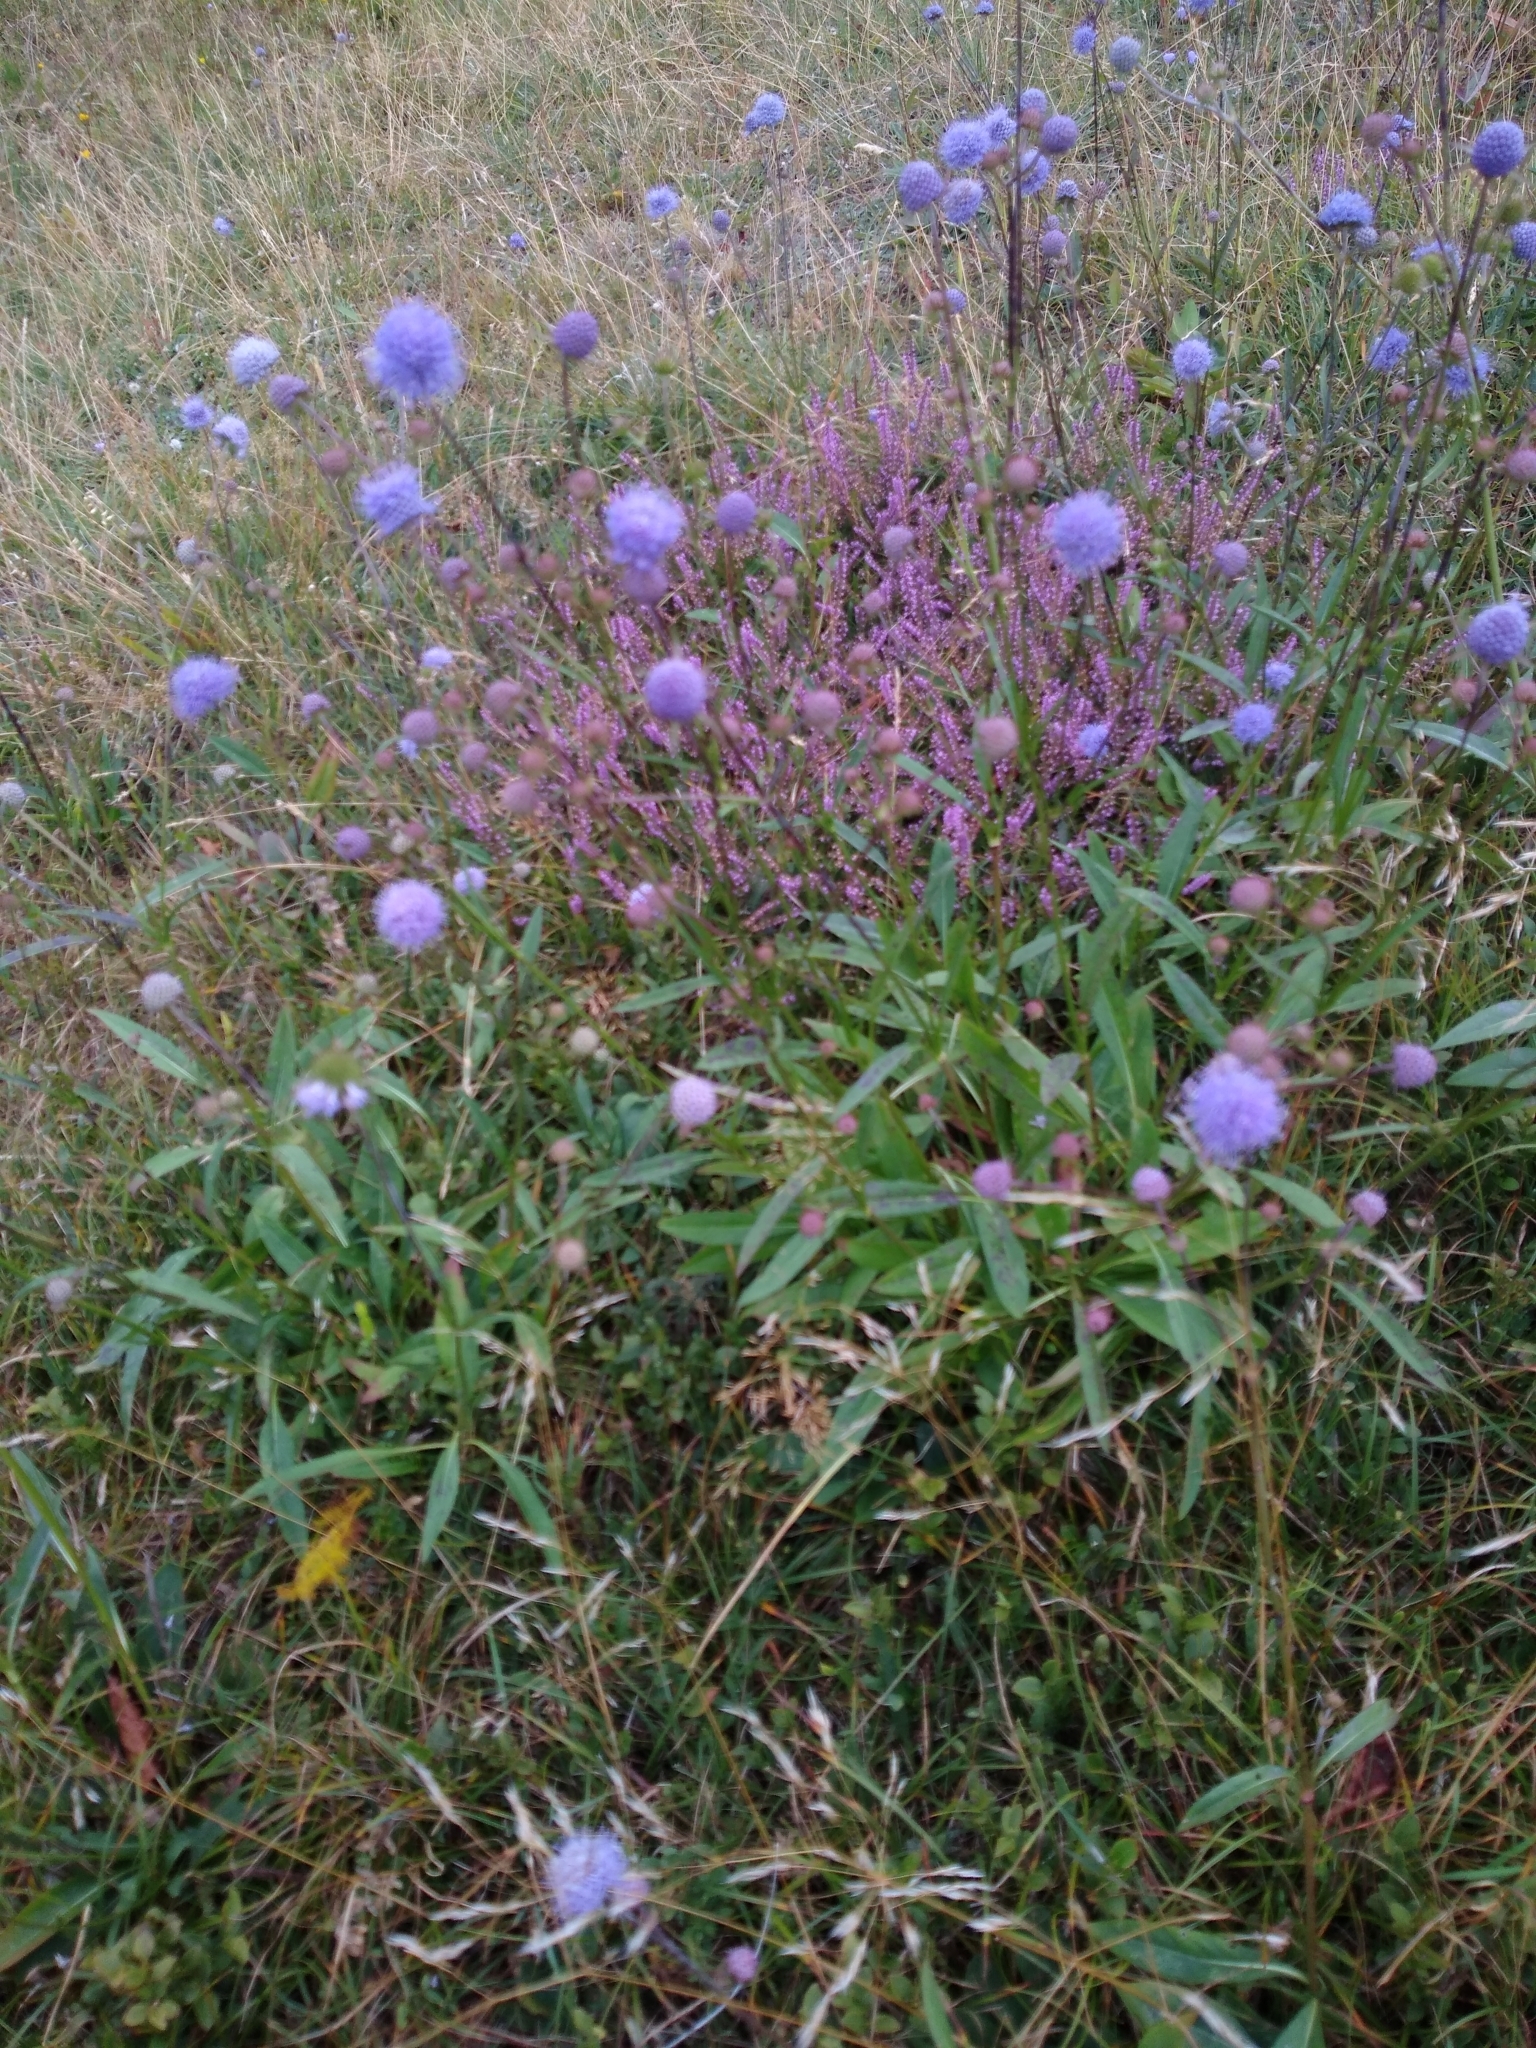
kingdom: Plantae
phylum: Tracheophyta
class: Magnoliopsida
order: Dipsacales
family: Caprifoliaceae
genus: Succisa
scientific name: Succisa pratensis
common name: Devil's-bit
